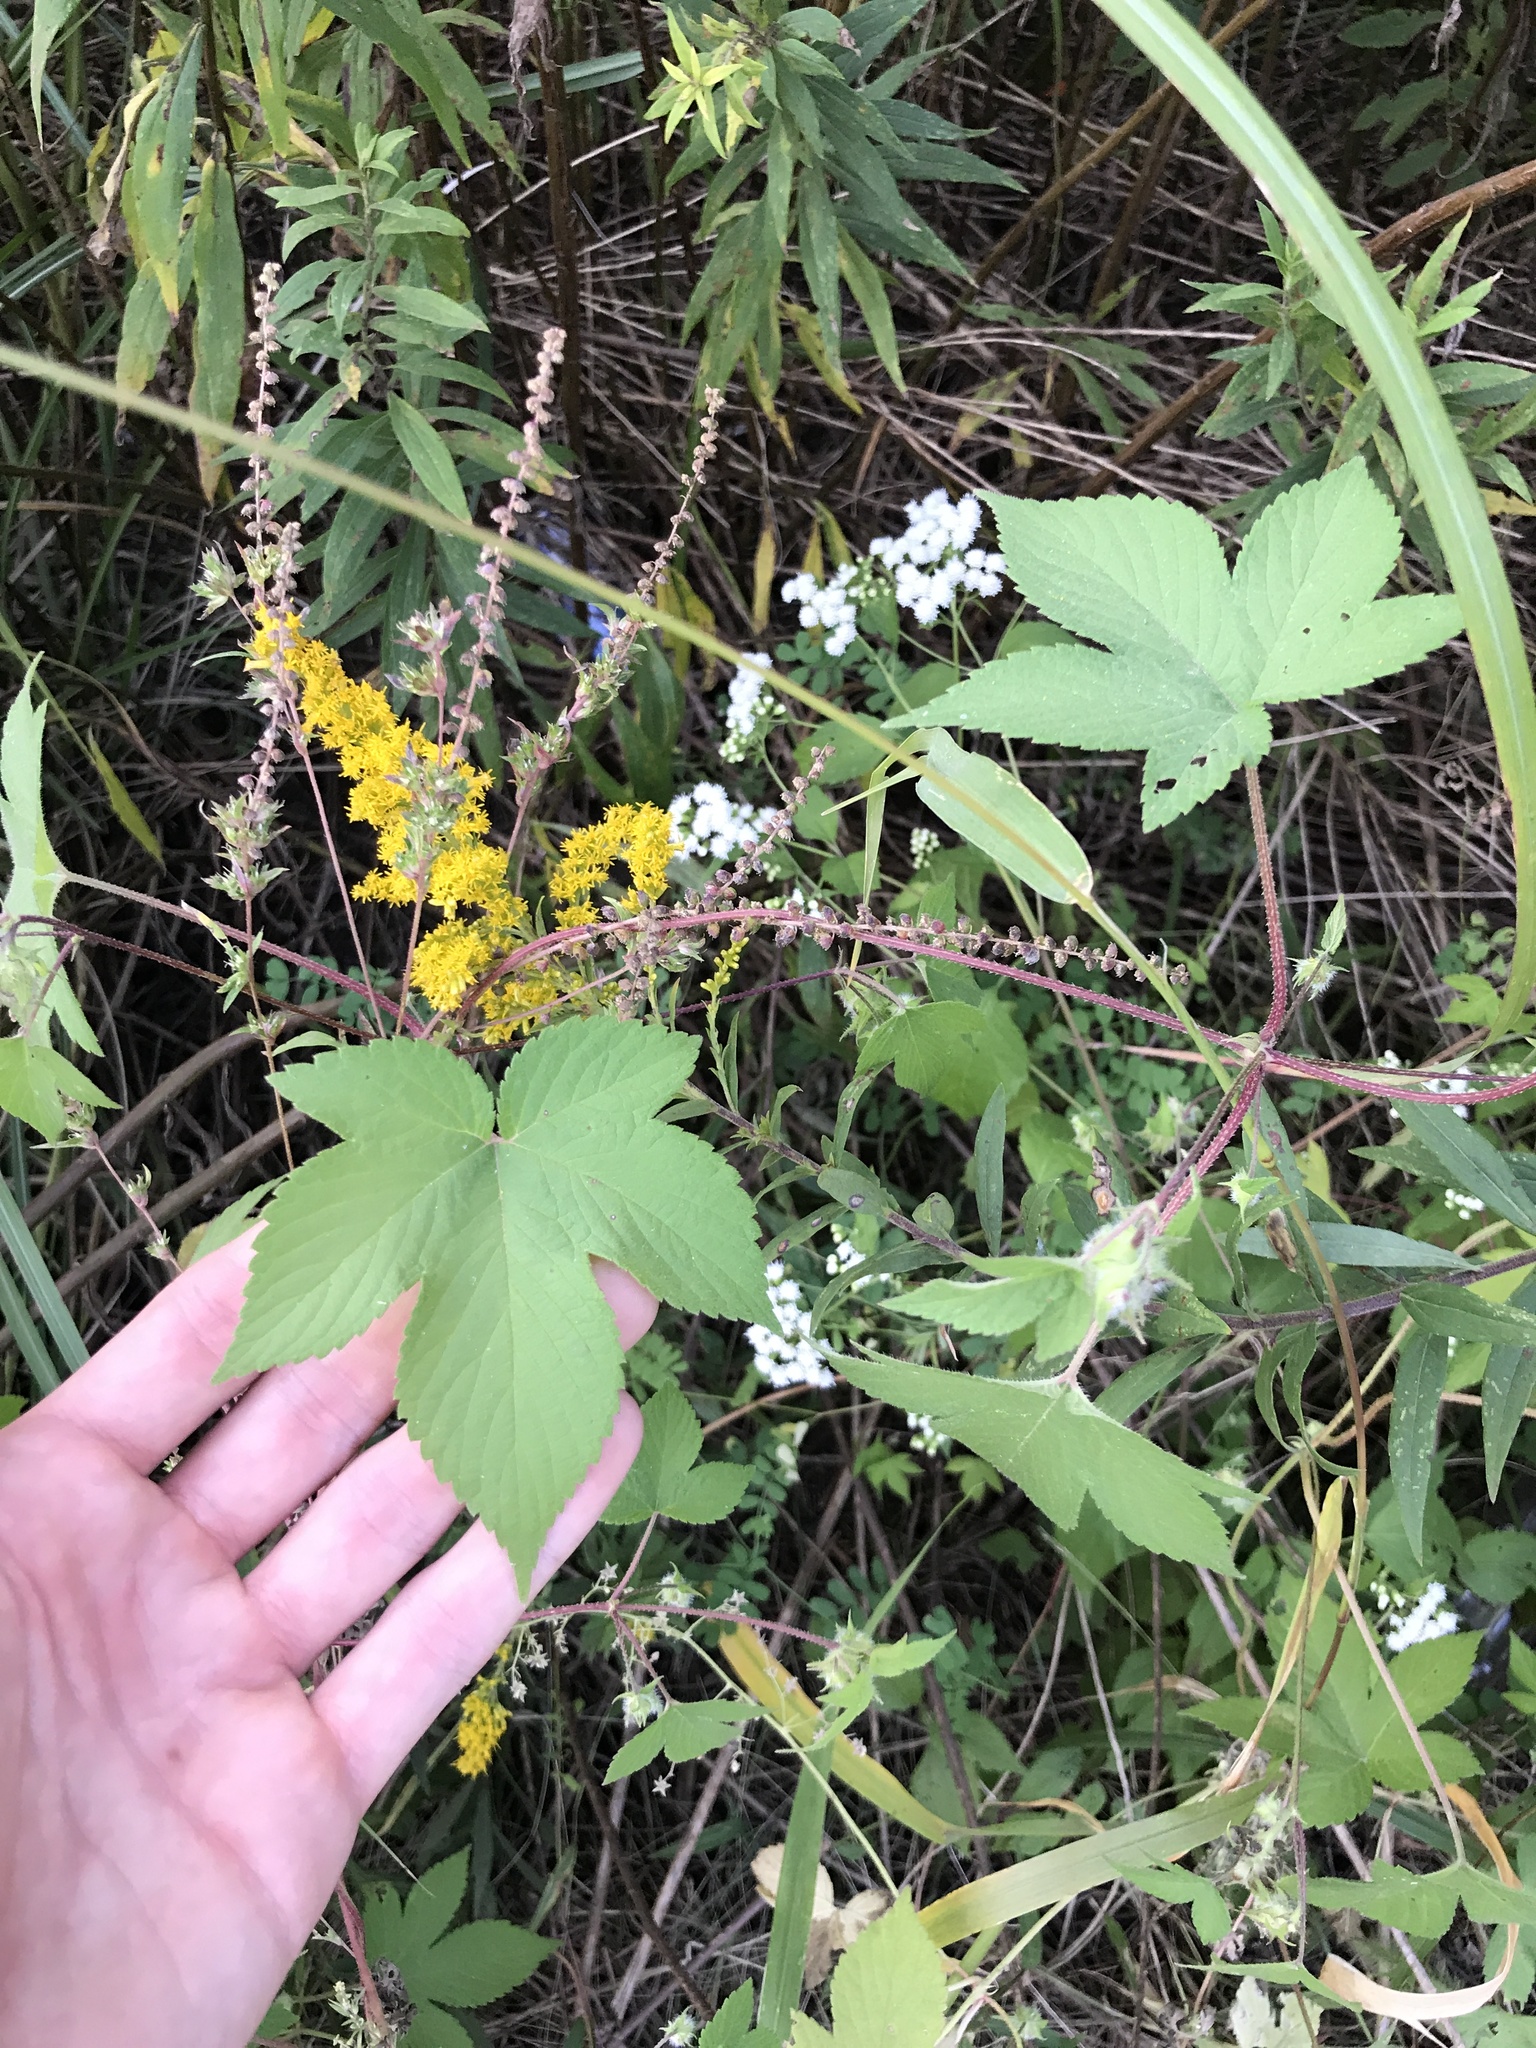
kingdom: Plantae
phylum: Tracheophyta
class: Magnoliopsida
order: Rosales
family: Cannabaceae
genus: Humulus
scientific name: Humulus scandens
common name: Japanese hop
